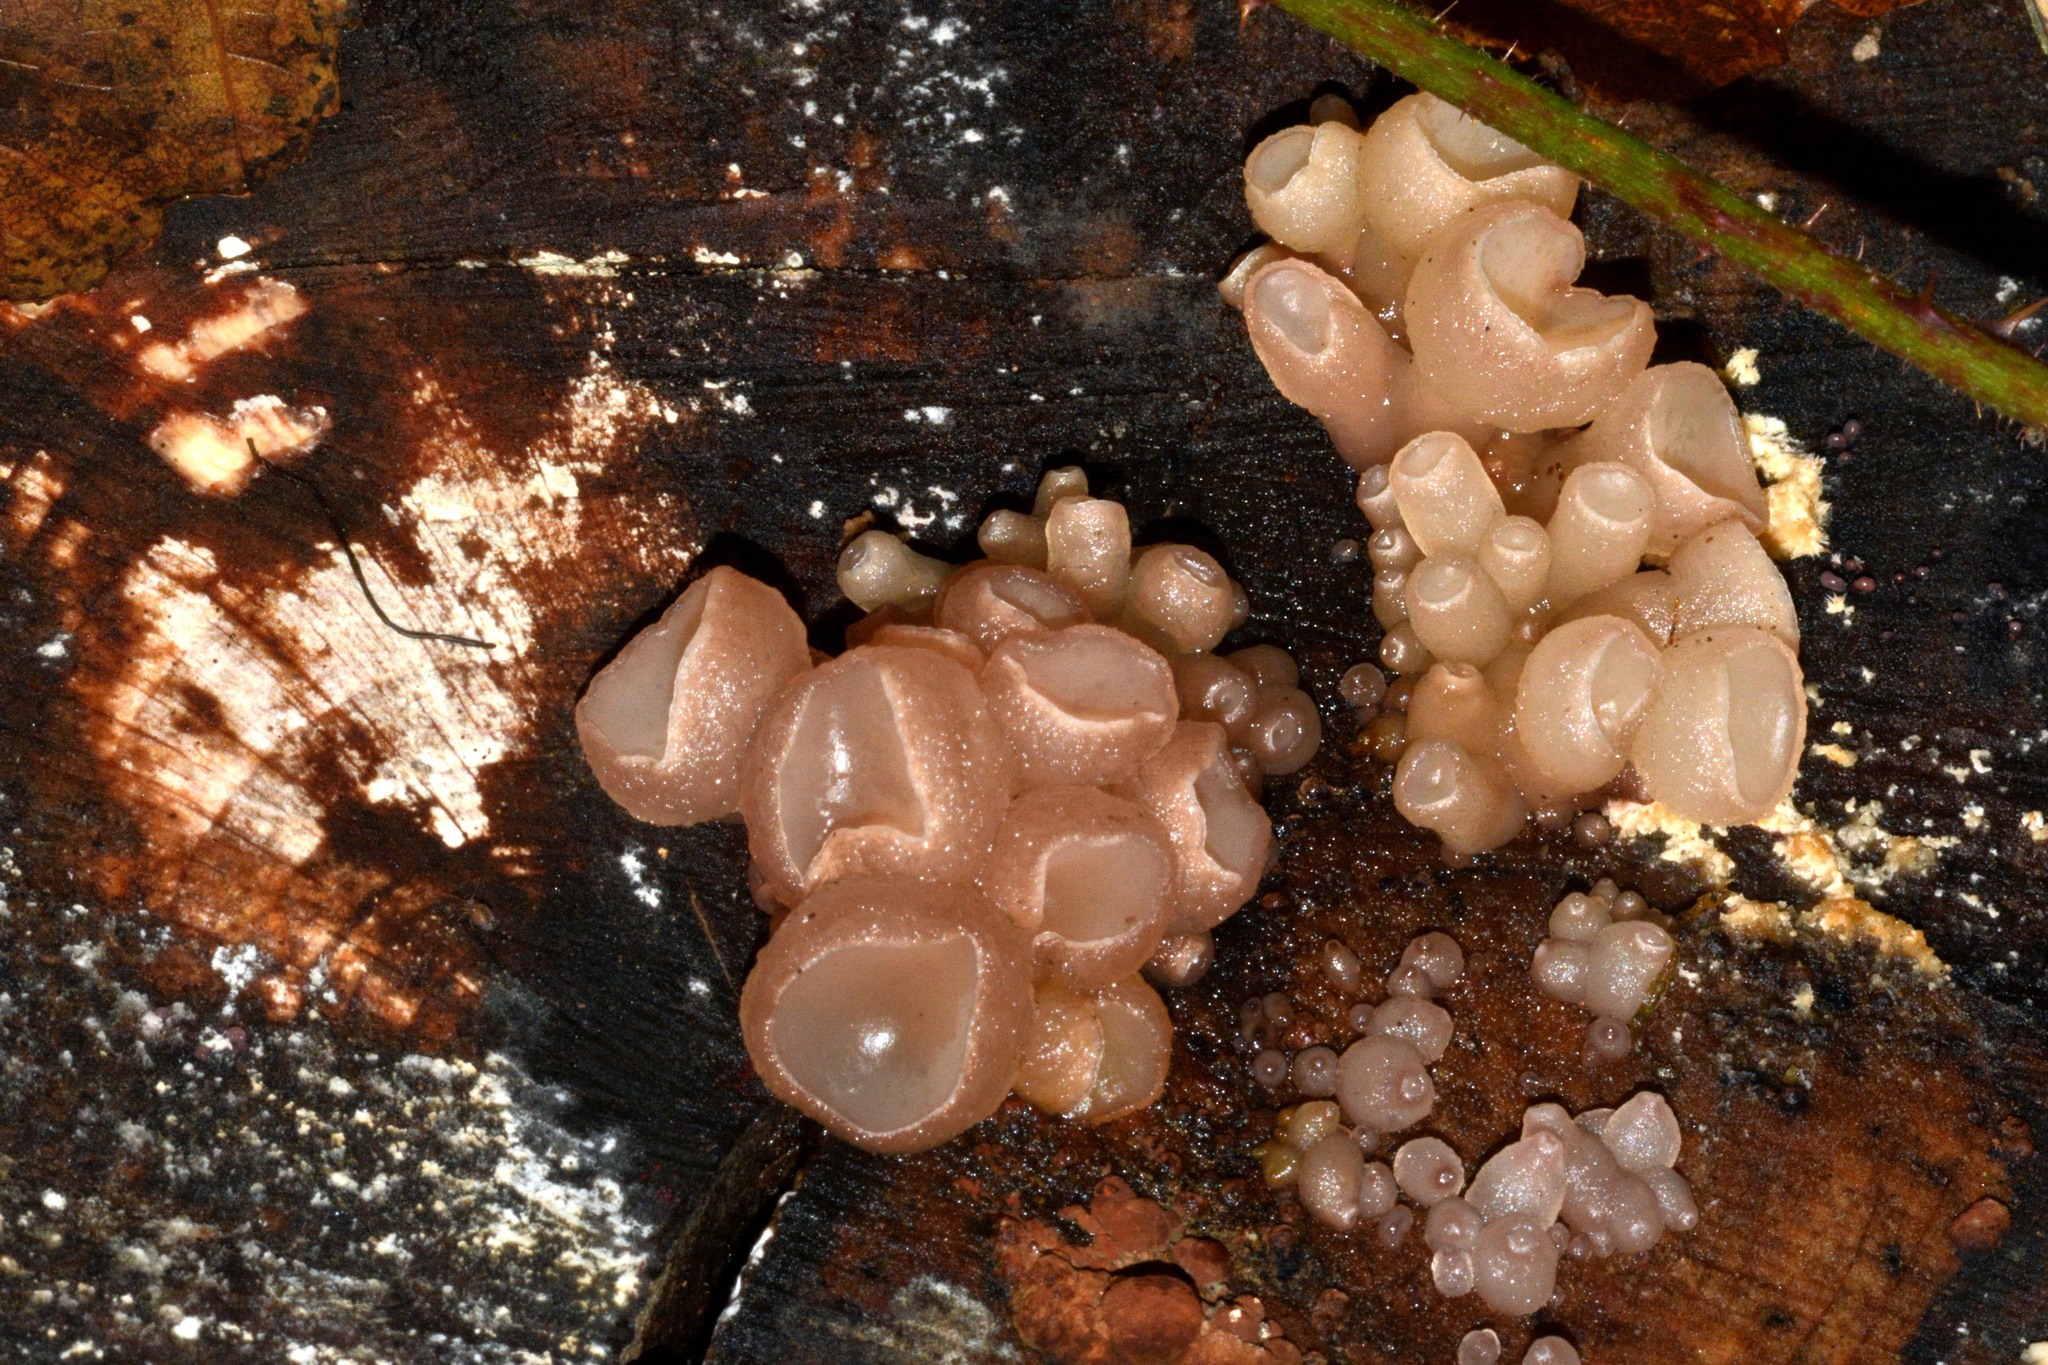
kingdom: Fungi
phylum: Ascomycota
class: Leotiomycetes
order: Helotiales
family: Gelatinodiscaceae
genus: Neobulgaria
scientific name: Neobulgaria pura
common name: Beech jelly-disc
